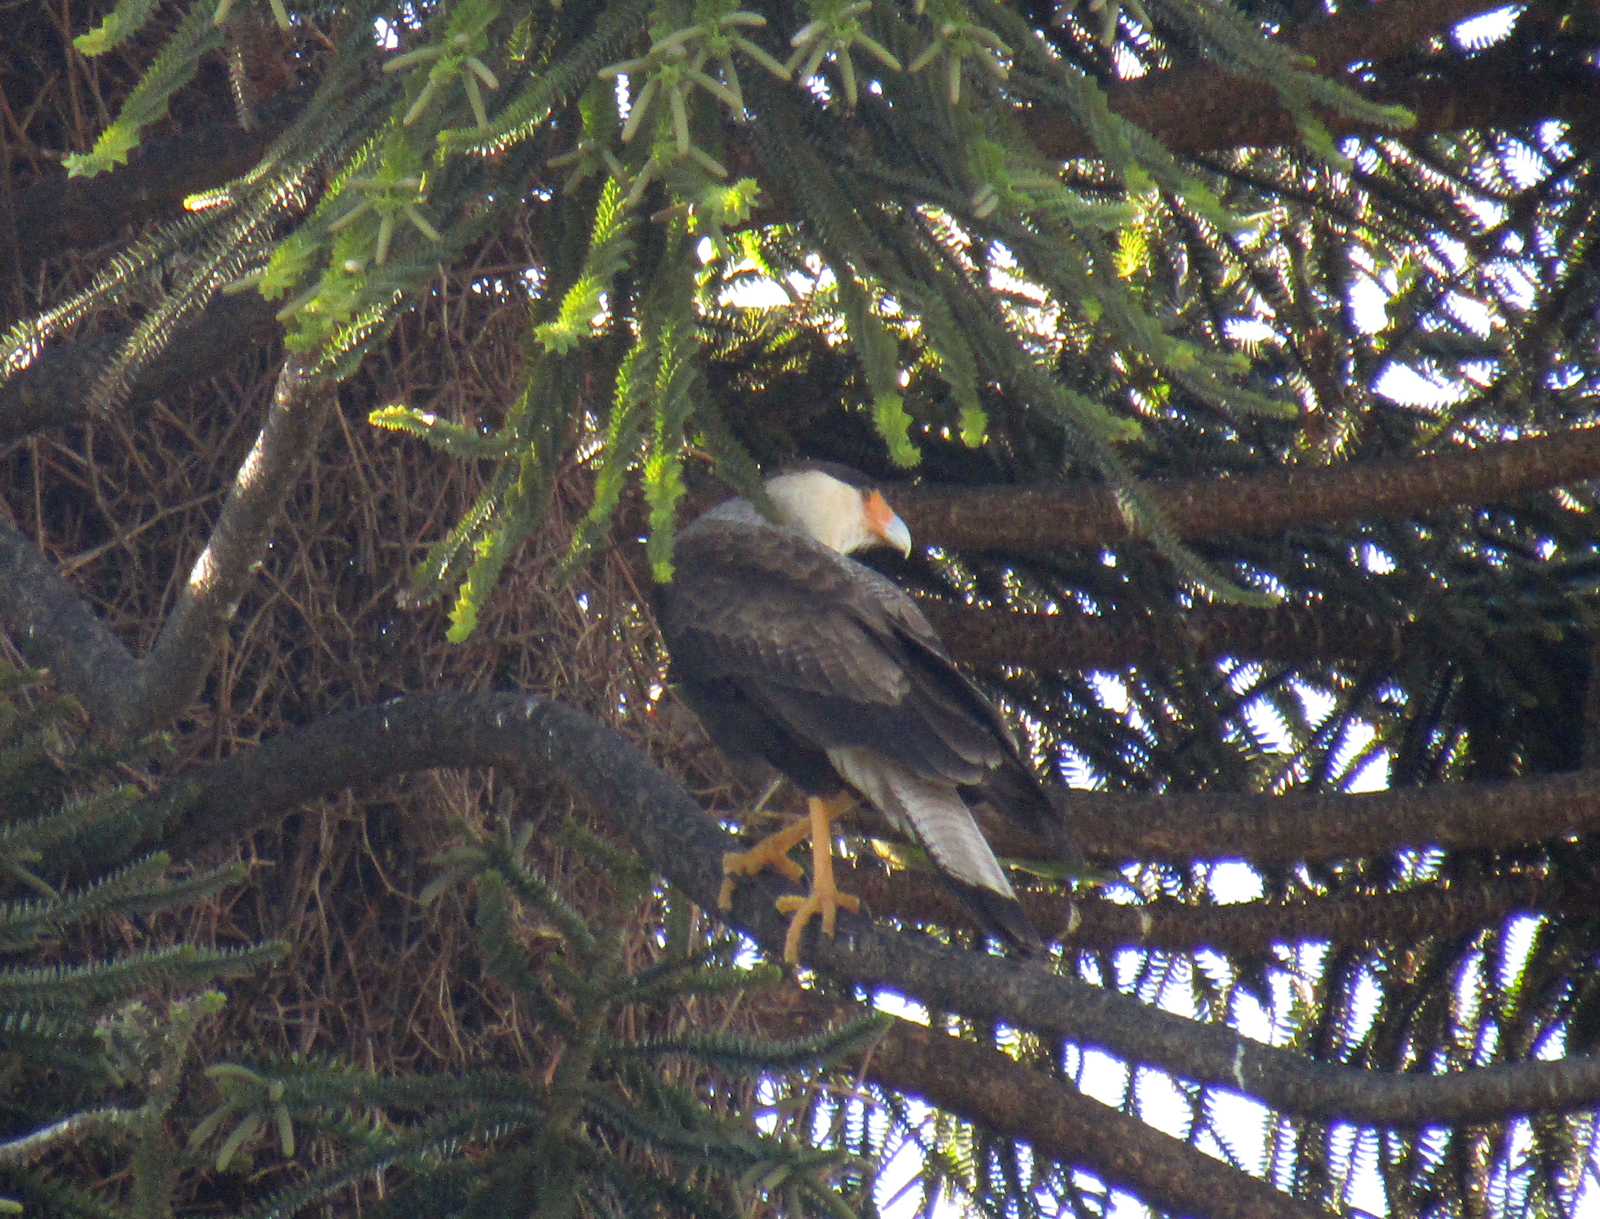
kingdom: Animalia
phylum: Chordata
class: Aves
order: Falconiformes
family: Falconidae
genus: Caracara
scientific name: Caracara plancus
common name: Southern caracara
